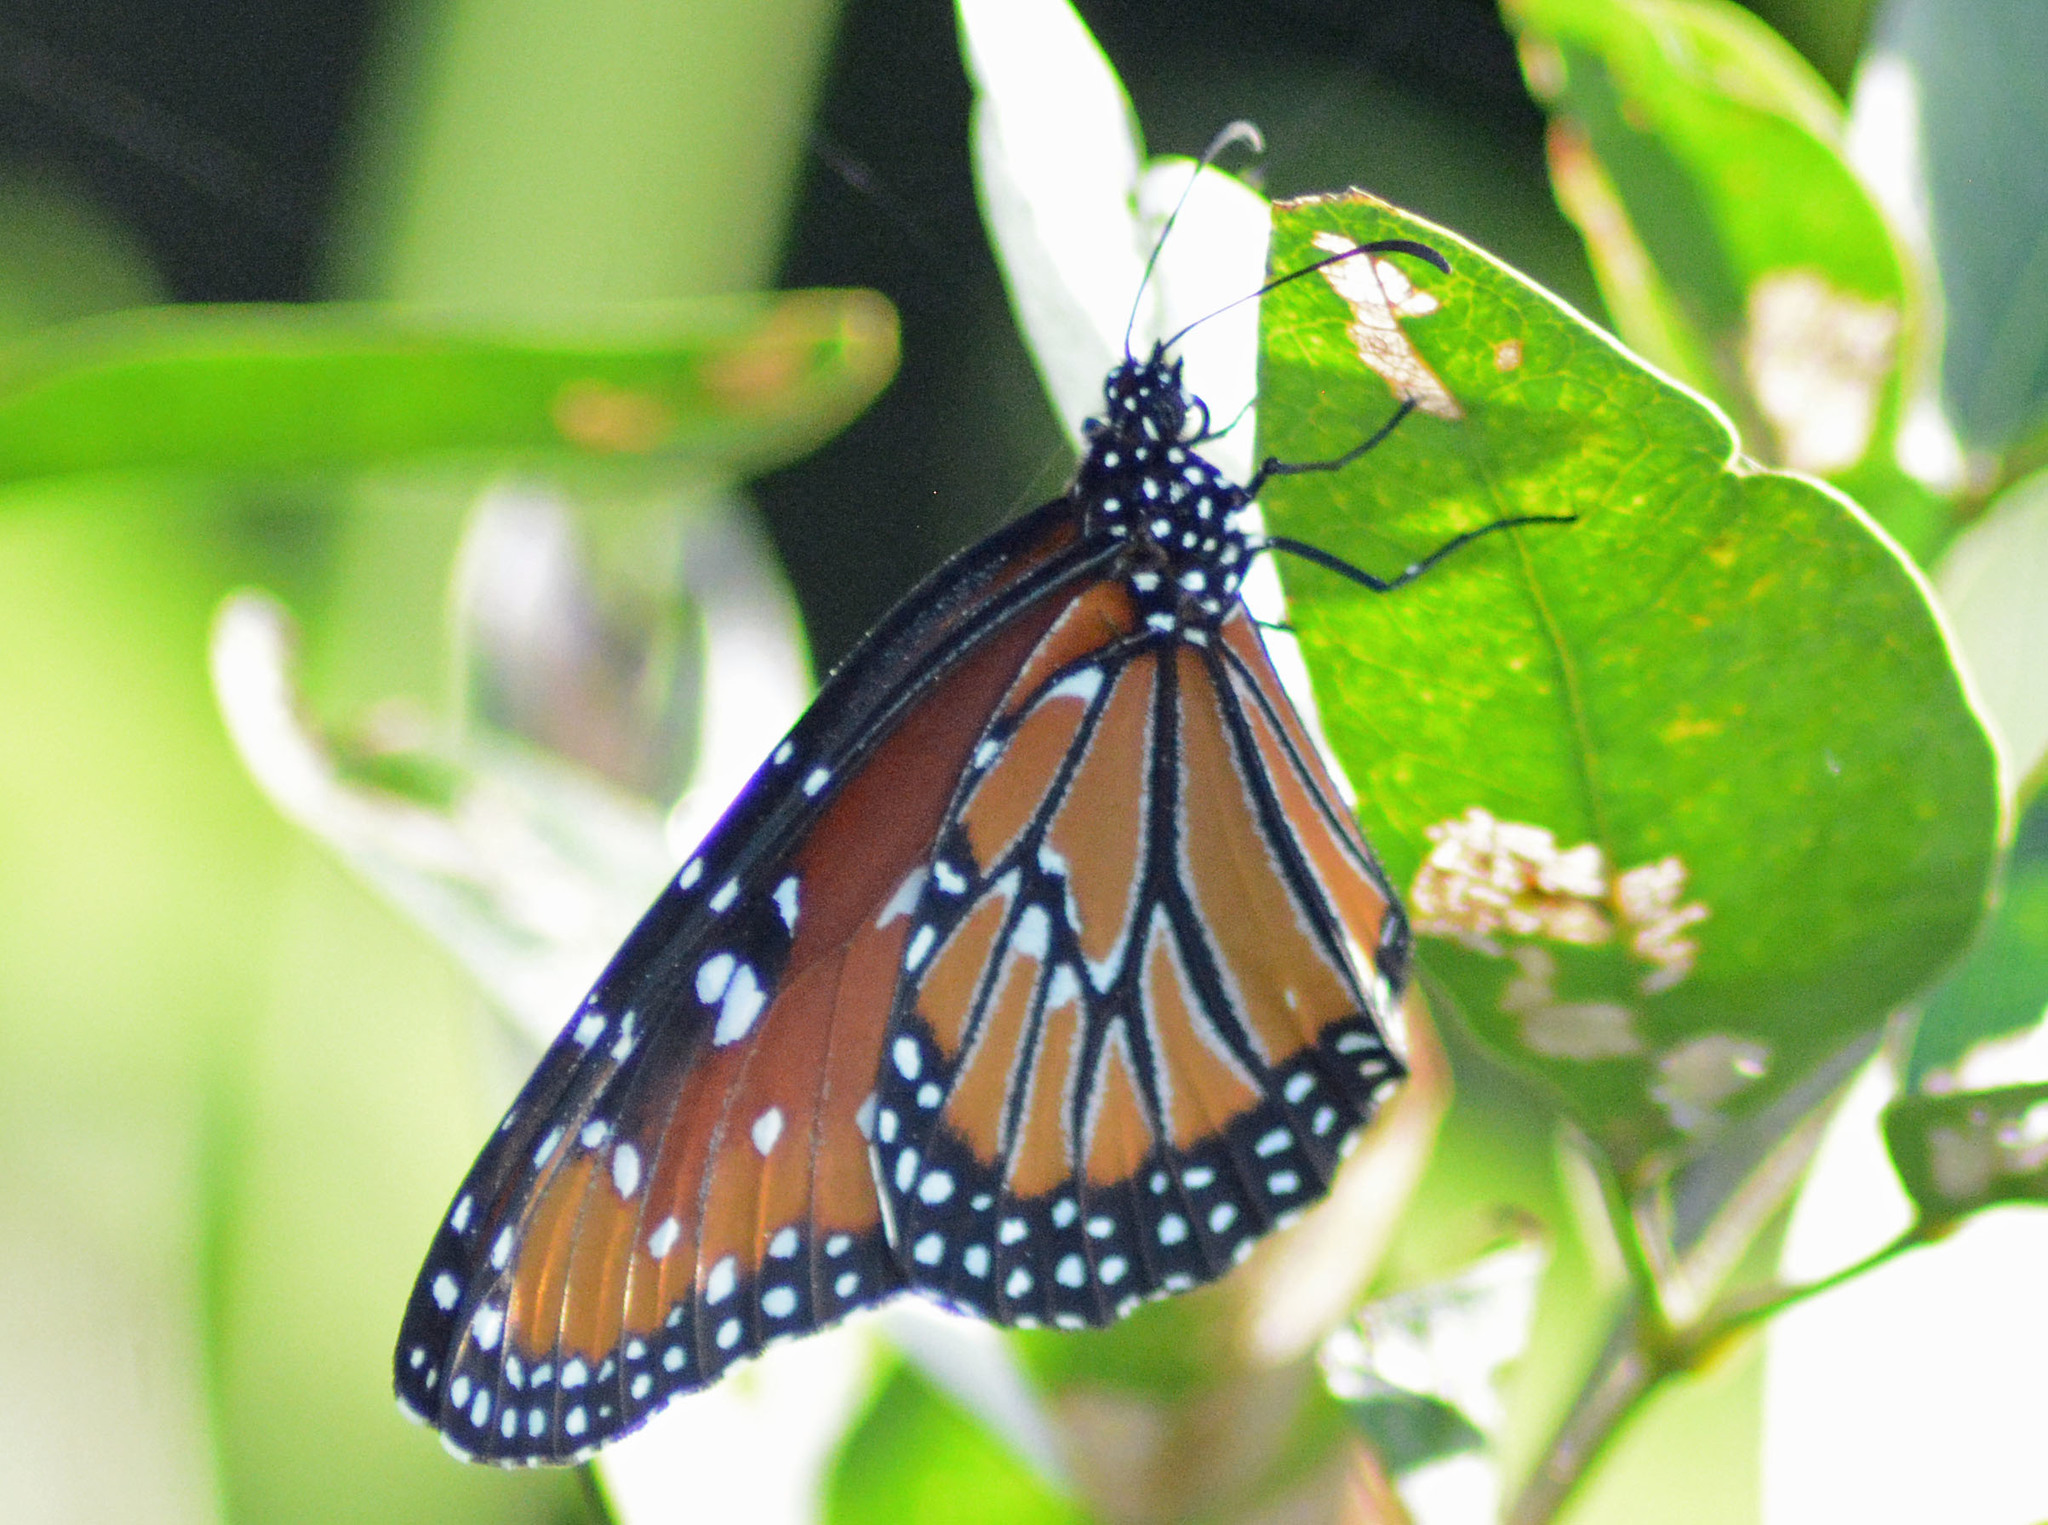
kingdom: Animalia
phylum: Arthropoda
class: Insecta
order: Lepidoptera
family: Nymphalidae
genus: Danaus
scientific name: Danaus gilippus
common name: Queen
